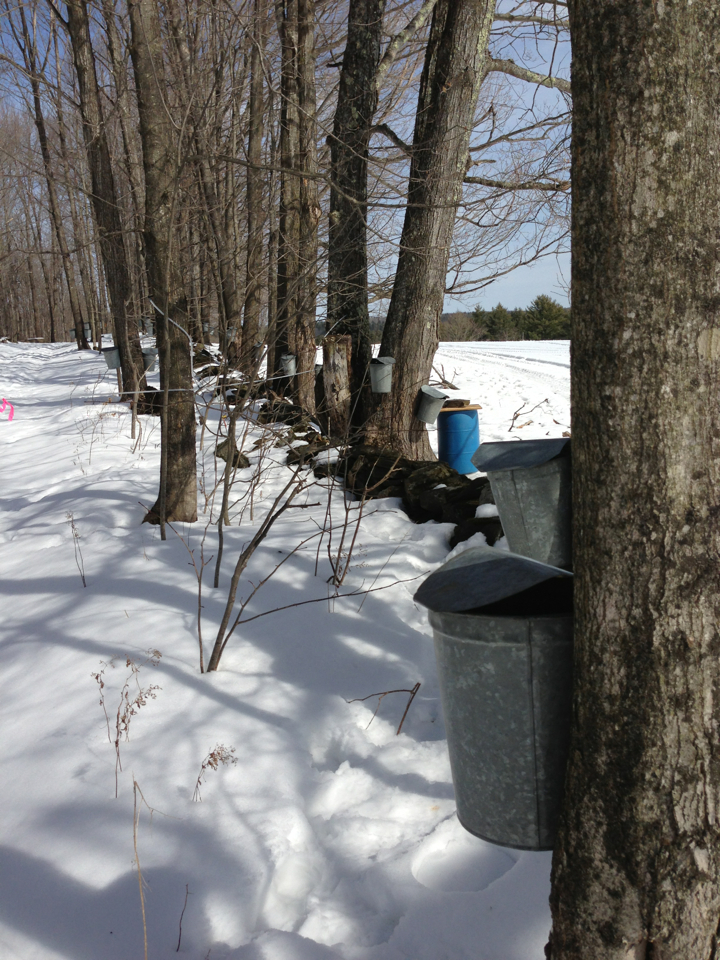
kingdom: Plantae
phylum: Tracheophyta
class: Magnoliopsida
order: Sapindales
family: Sapindaceae
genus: Acer
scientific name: Acer saccharum
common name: Sugar maple
